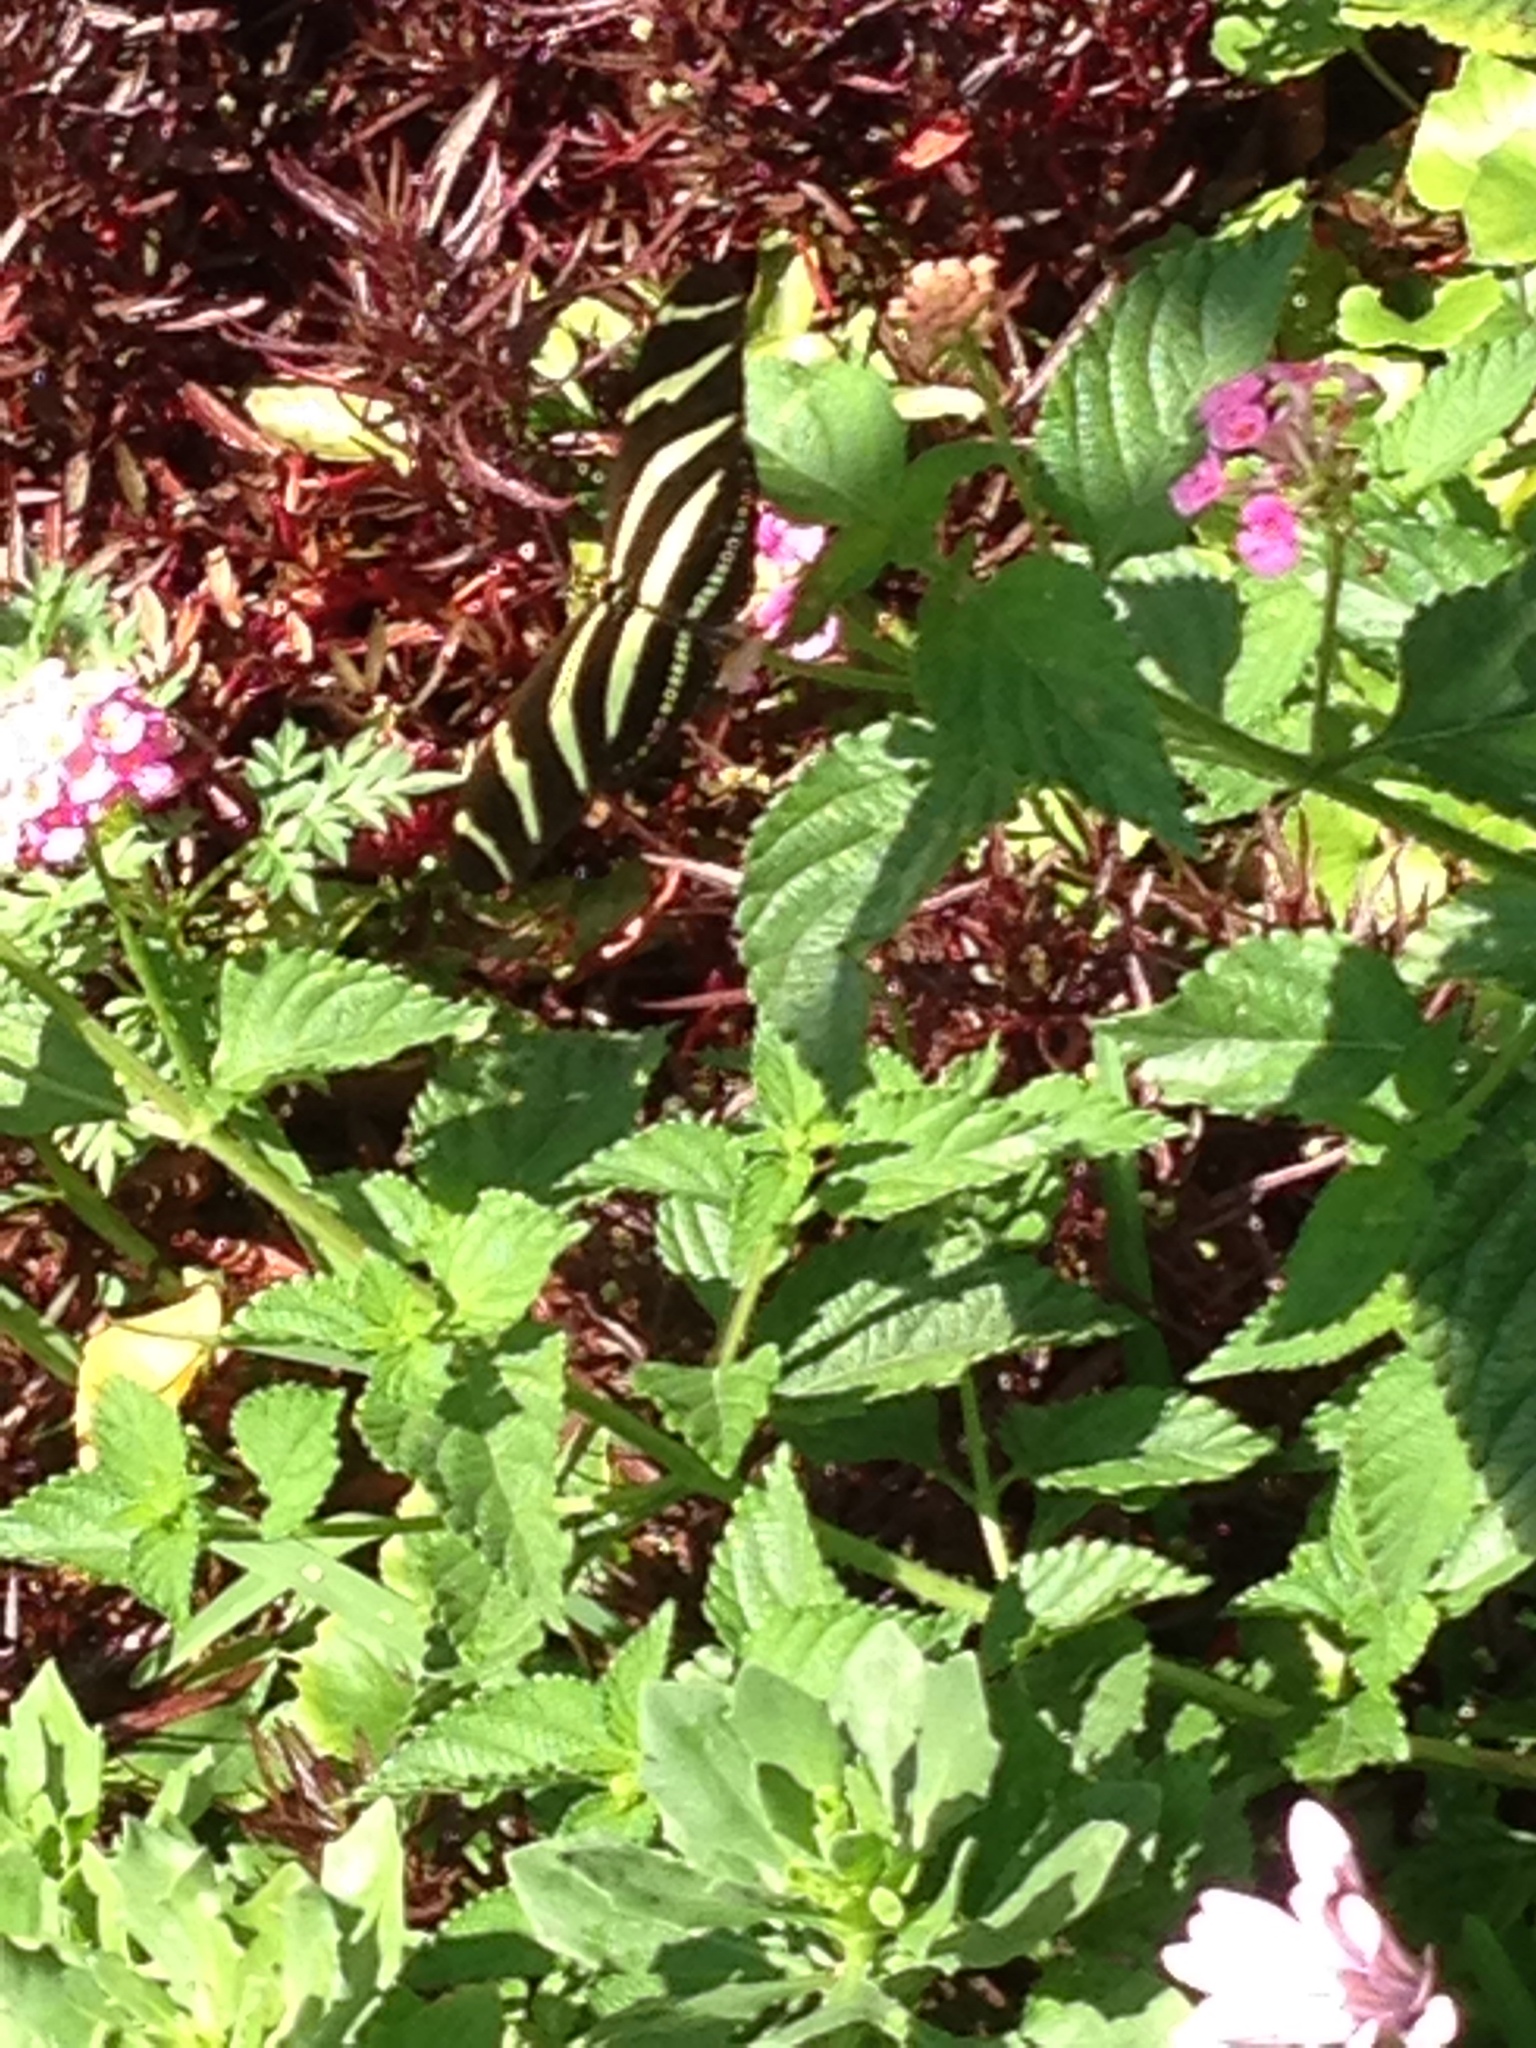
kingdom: Animalia
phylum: Arthropoda
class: Insecta
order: Lepidoptera
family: Nymphalidae
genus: Heliconius
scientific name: Heliconius charithonia
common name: Zebra long wing
